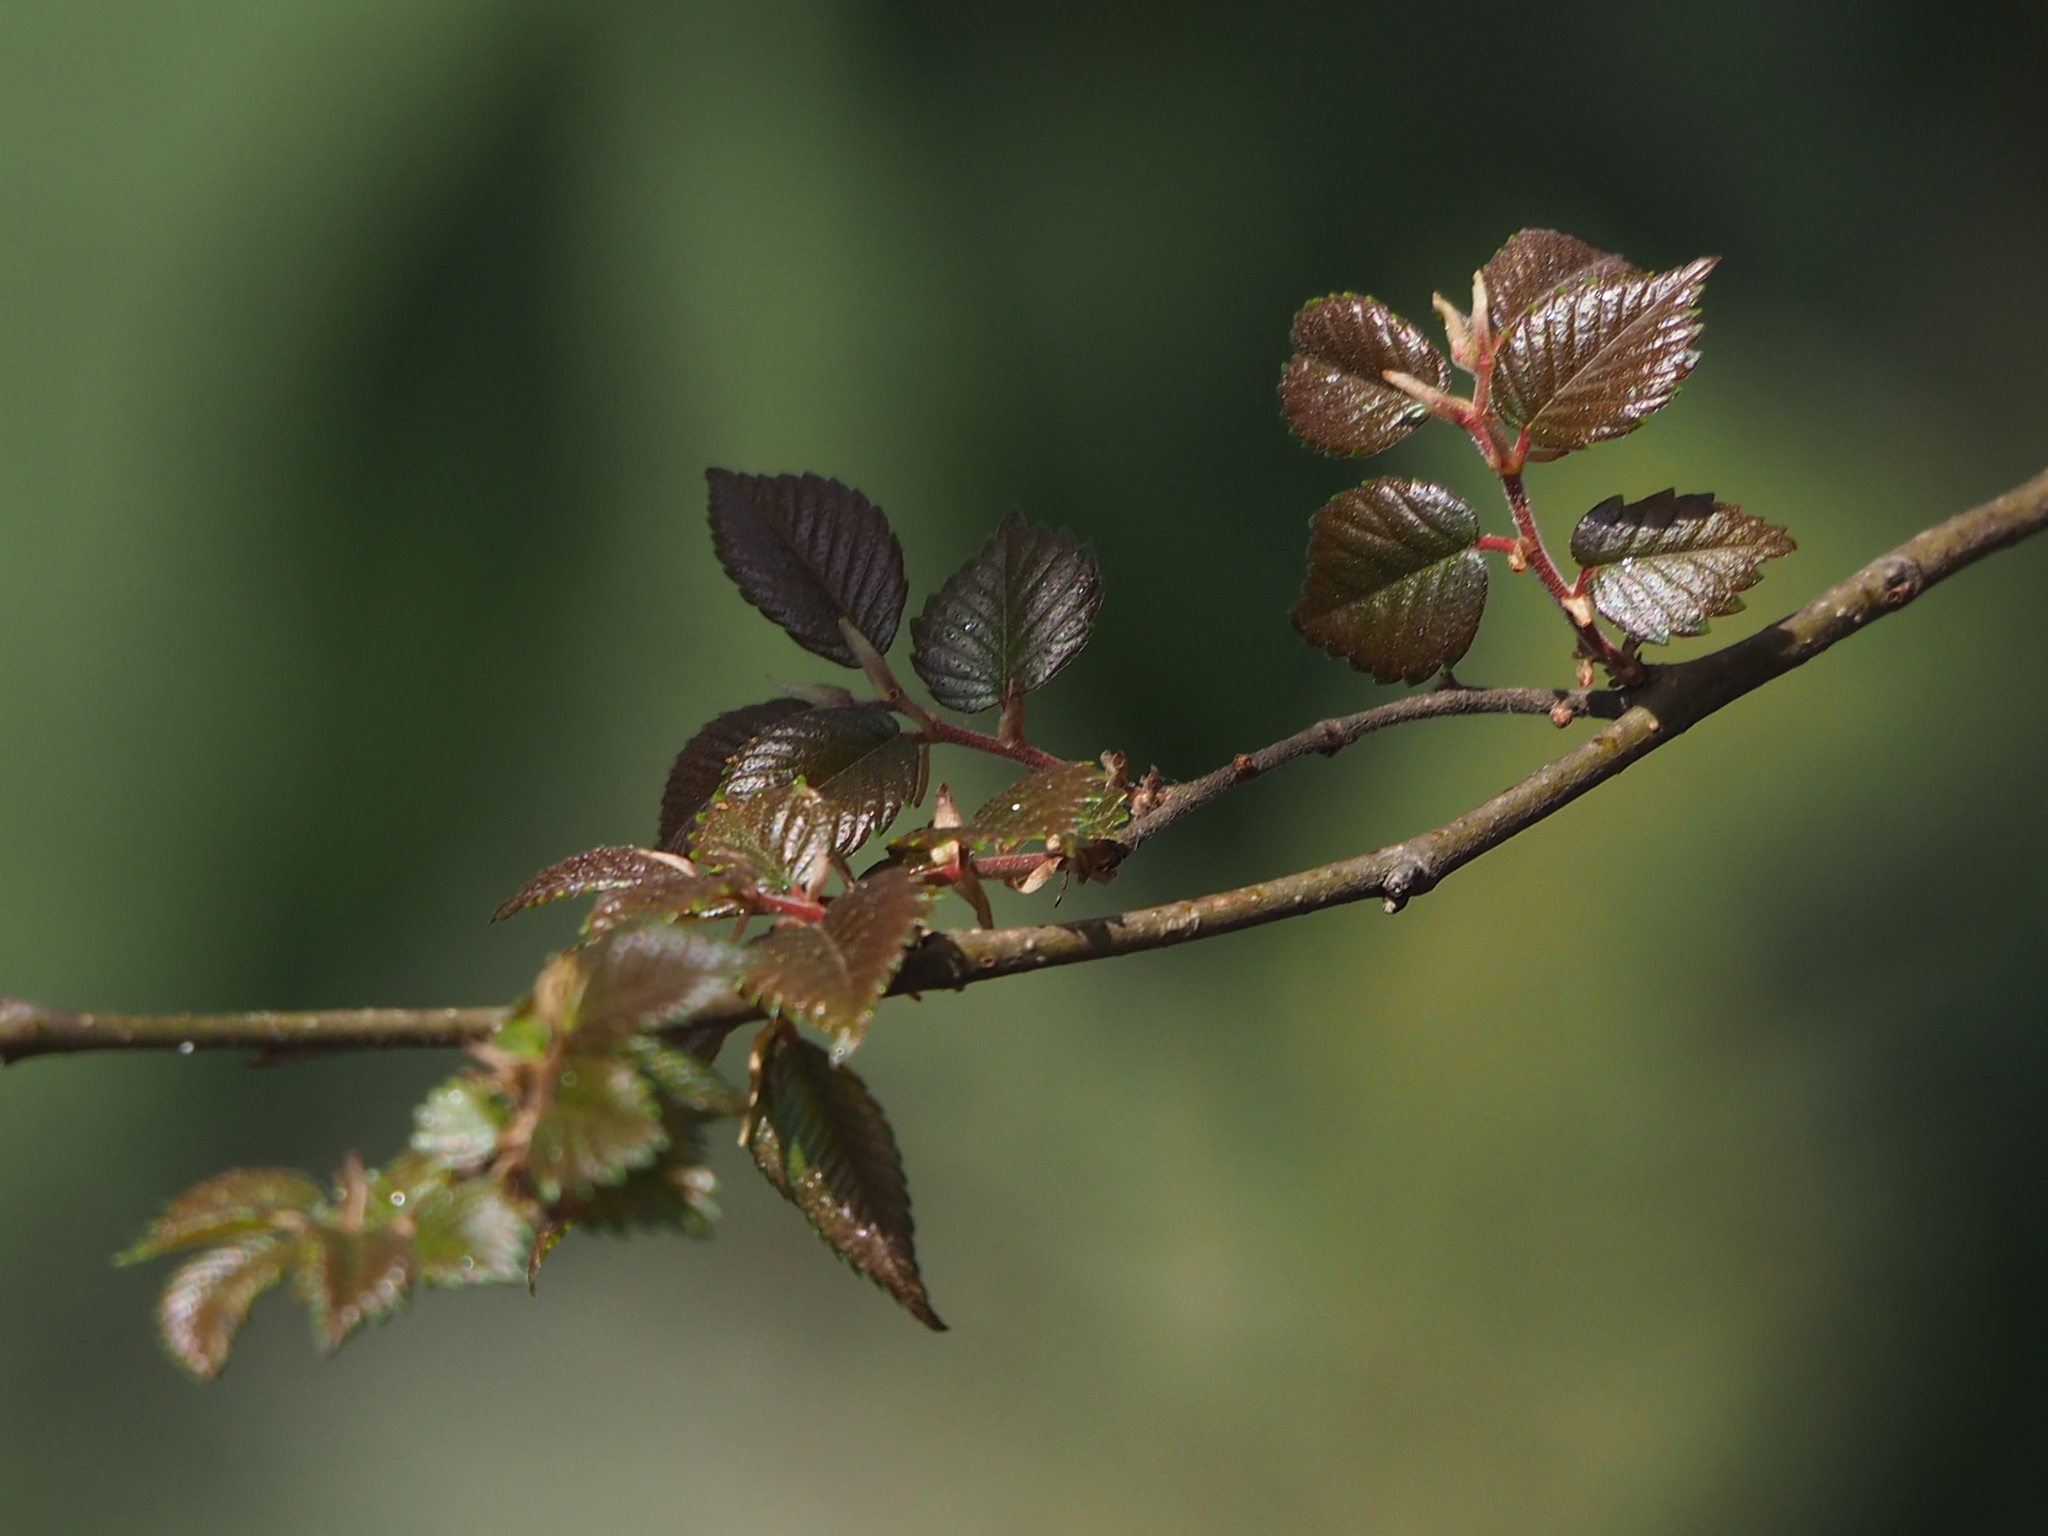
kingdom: Plantae
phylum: Tracheophyta
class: Magnoliopsida
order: Rosales
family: Ulmaceae
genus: Zelkova
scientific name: Zelkova serrata
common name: Japanese zelkova
